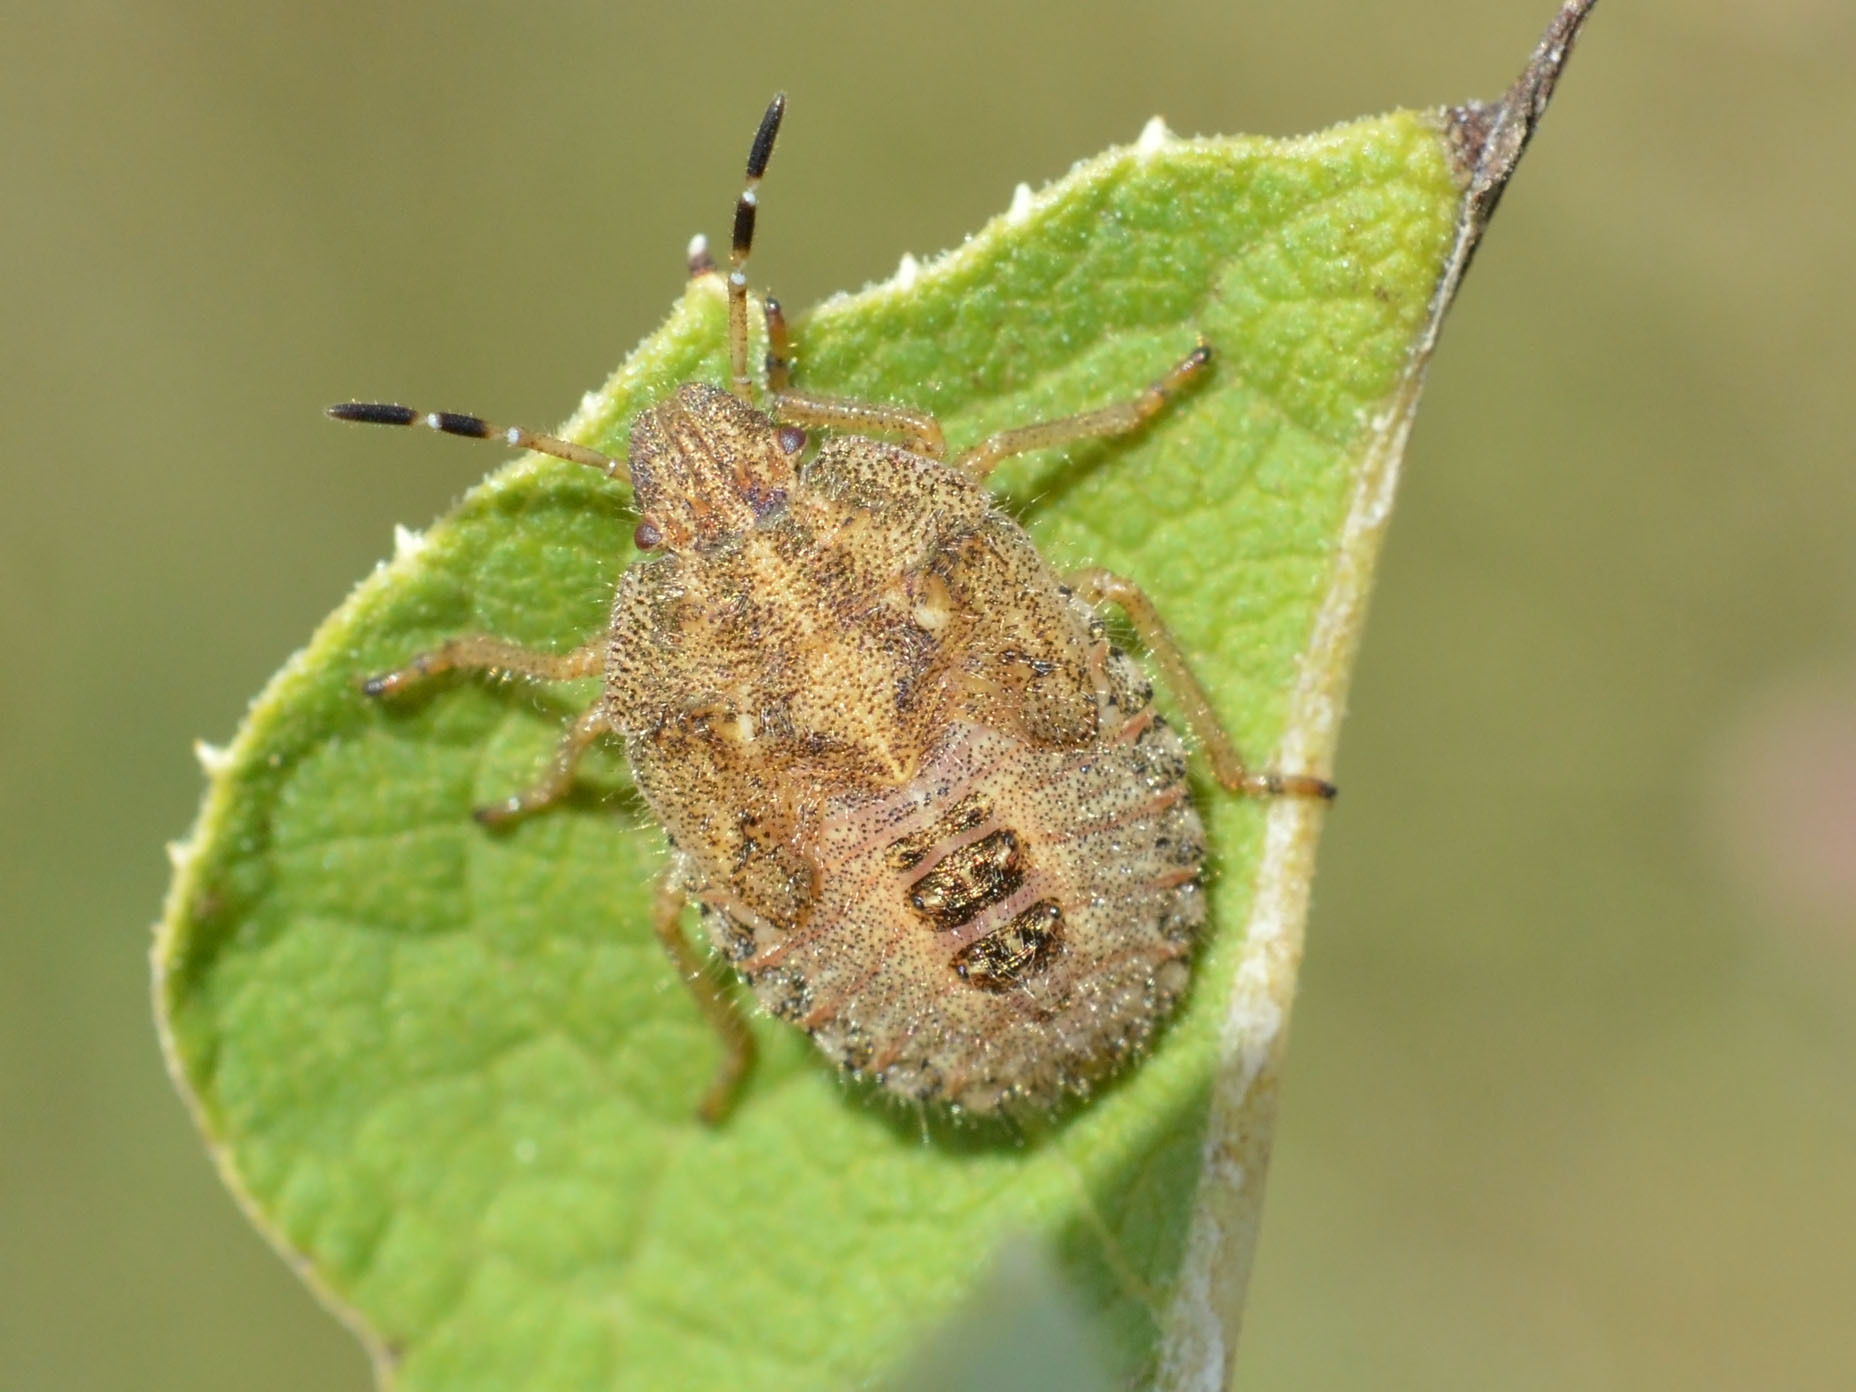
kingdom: Animalia
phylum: Arthropoda
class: Insecta
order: Hemiptera
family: Pentatomidae
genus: Dolycoris
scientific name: Dolycoris baccarum
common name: Sloe bug
